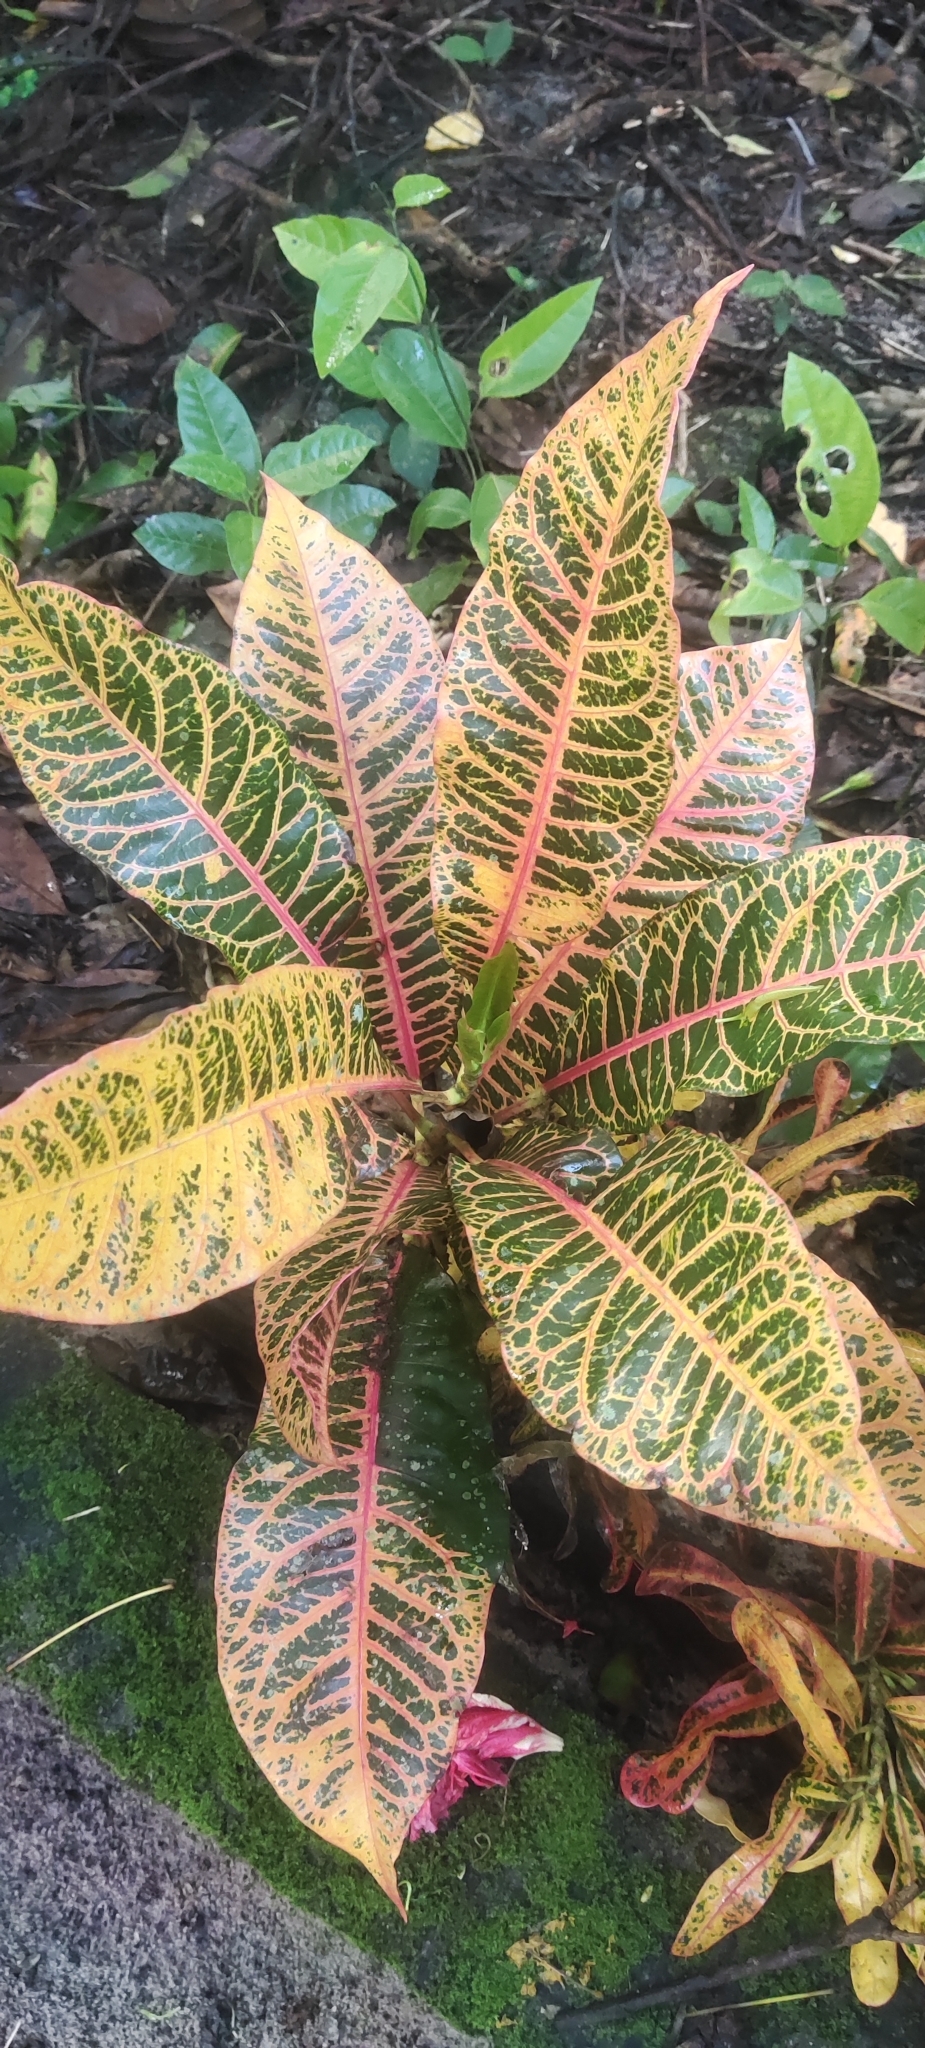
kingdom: Plantae
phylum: Tracheophyta
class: Magnoliopsida
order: Malpighiales
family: Euphorbiaceae
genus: Codiaeum
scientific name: Codiaeum variegatum
